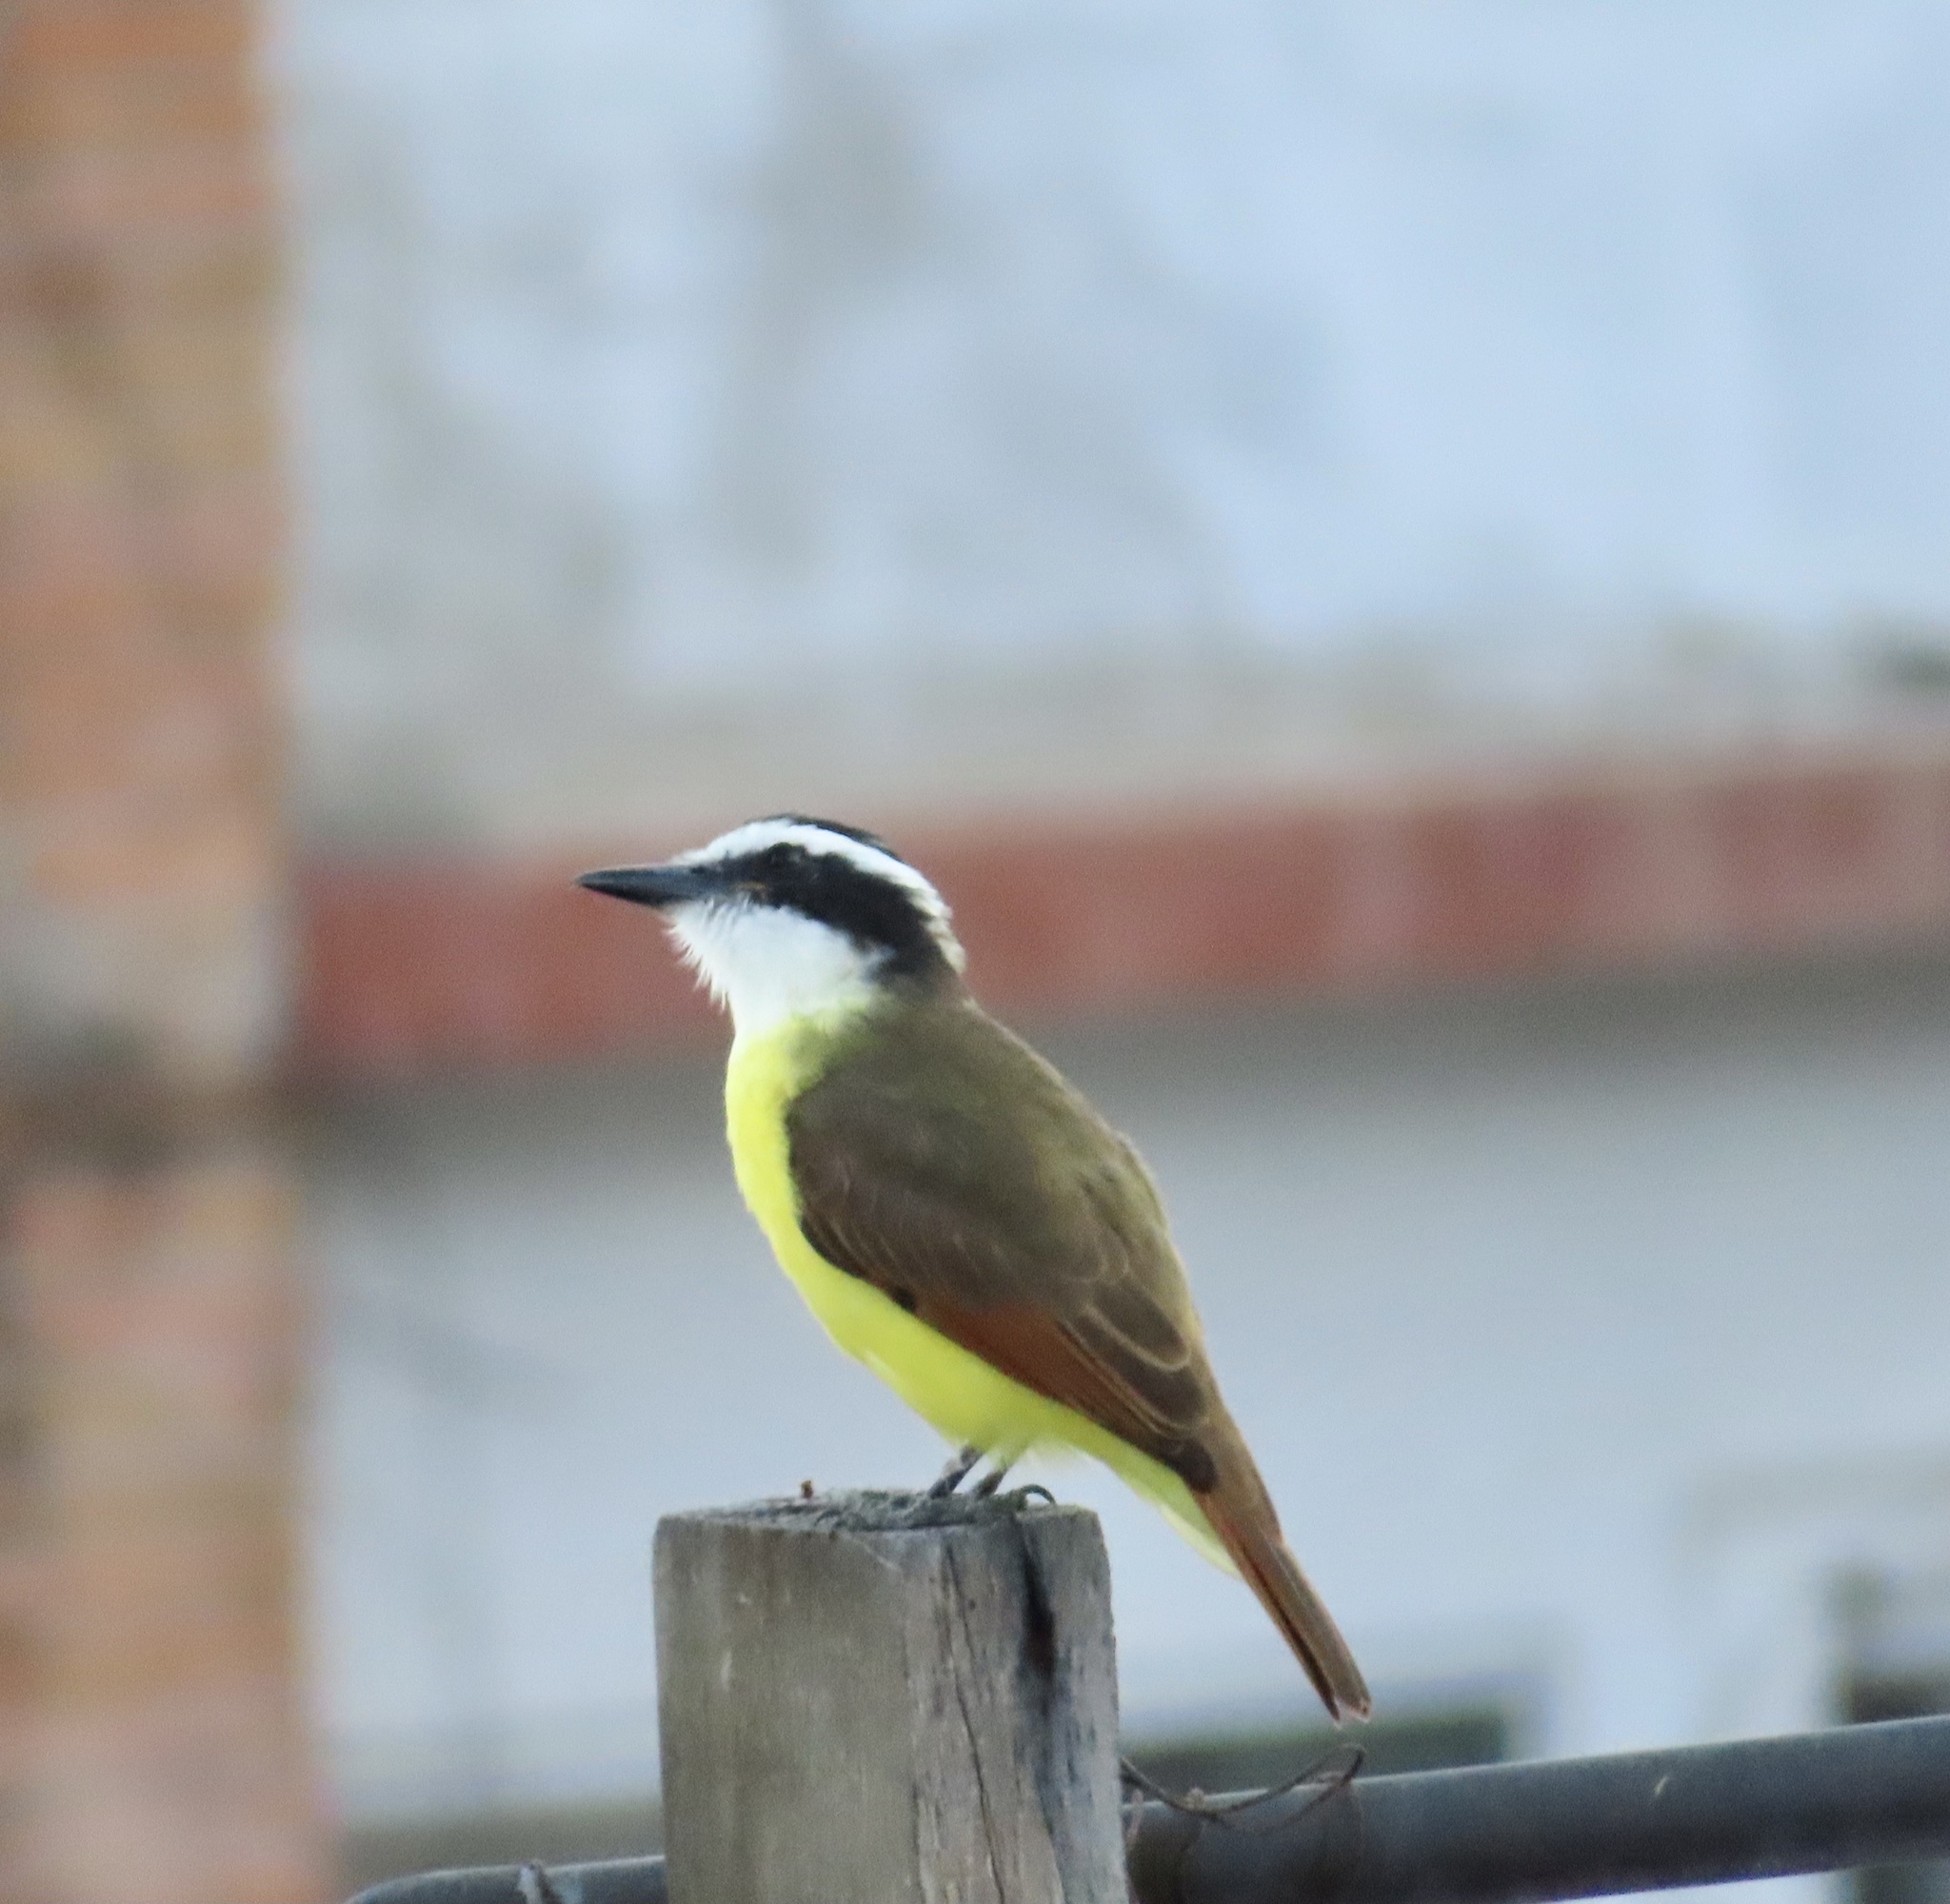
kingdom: Animalia
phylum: Chordata
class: Aves
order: Passeriformes
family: Tyrannidae
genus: Pitangus
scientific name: Pitangus sulphuratus
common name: Great kiskadee
